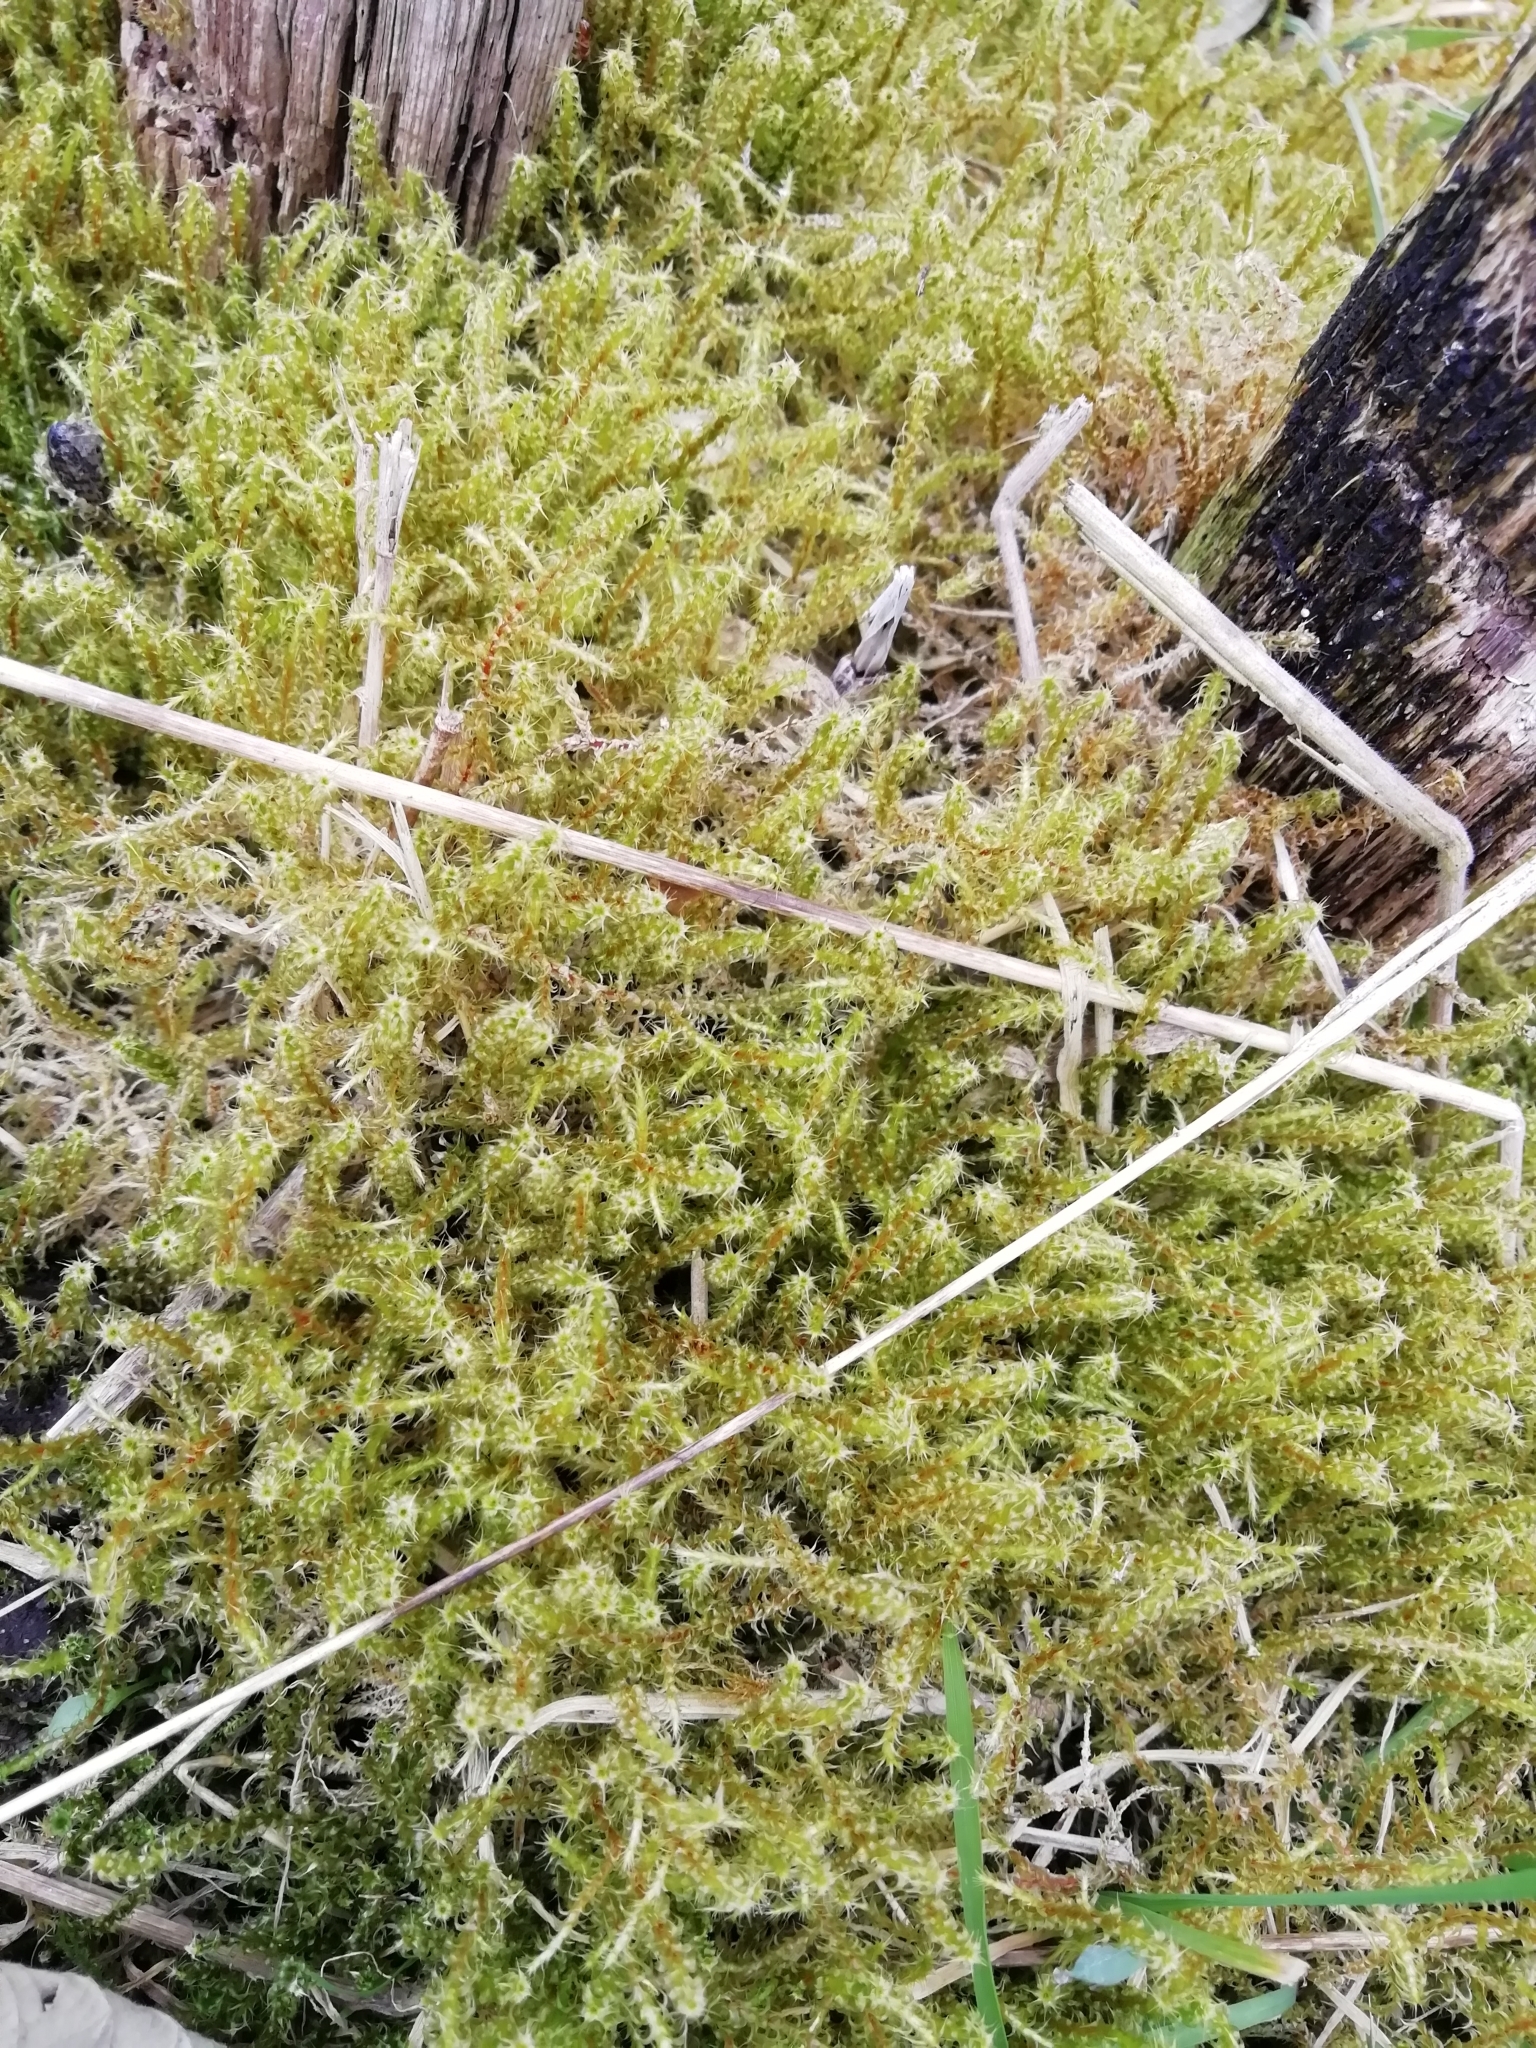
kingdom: Plantae
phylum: Bryophyta
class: Bryopsida
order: Hypnales
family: Hylocomiaceae
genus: Rhytidiadelphus
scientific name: Rhytidiadelphus squarrosus
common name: Springy turf-moss
